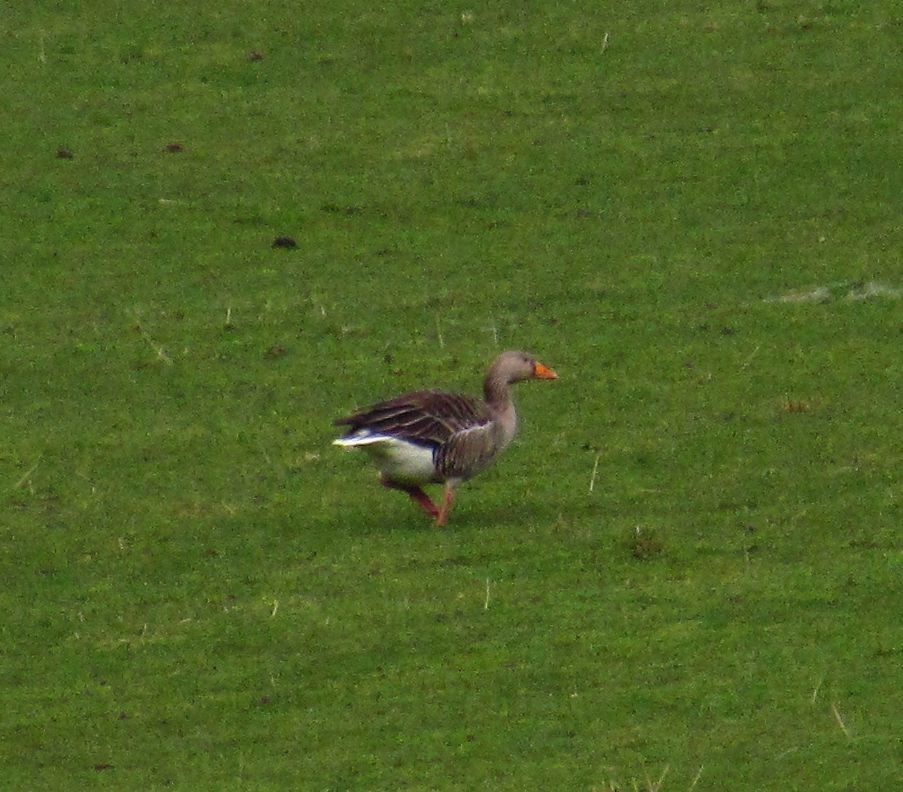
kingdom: Animalia
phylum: Chordata
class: Aves
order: Anseriformes
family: Anatidae
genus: Anser
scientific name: Anser anser
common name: Greylag goose
